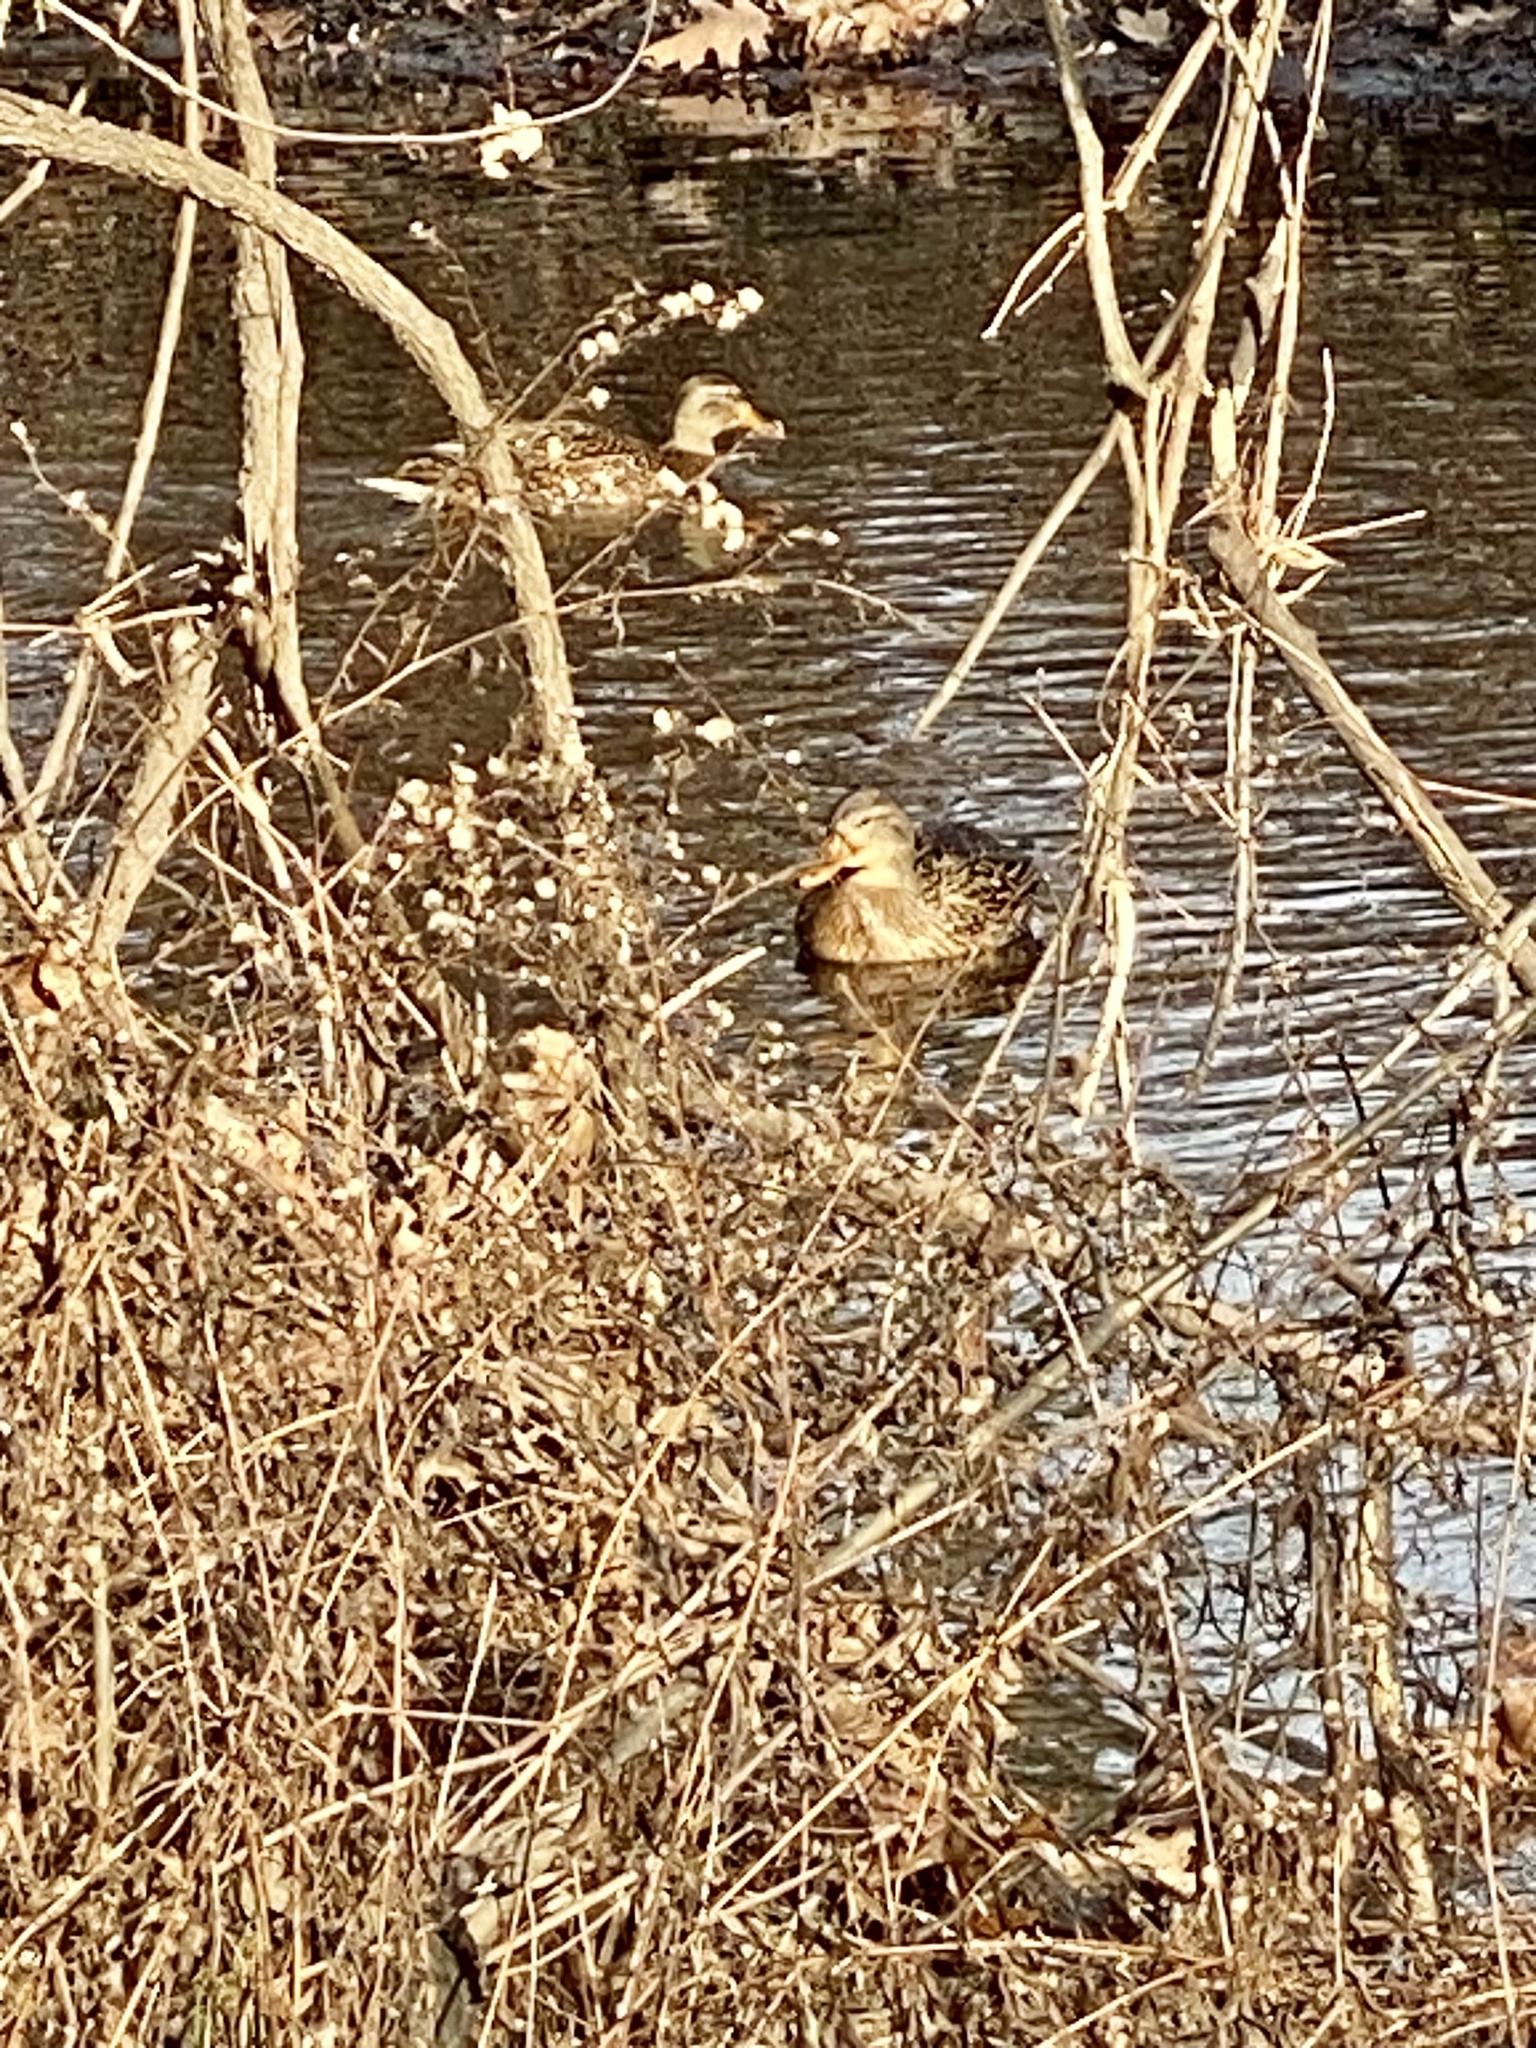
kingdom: Animalia
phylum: Chordata
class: Aves
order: Anseriformes
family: Anatidae
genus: Anas
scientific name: Anas platyrhynchos
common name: Mallard
